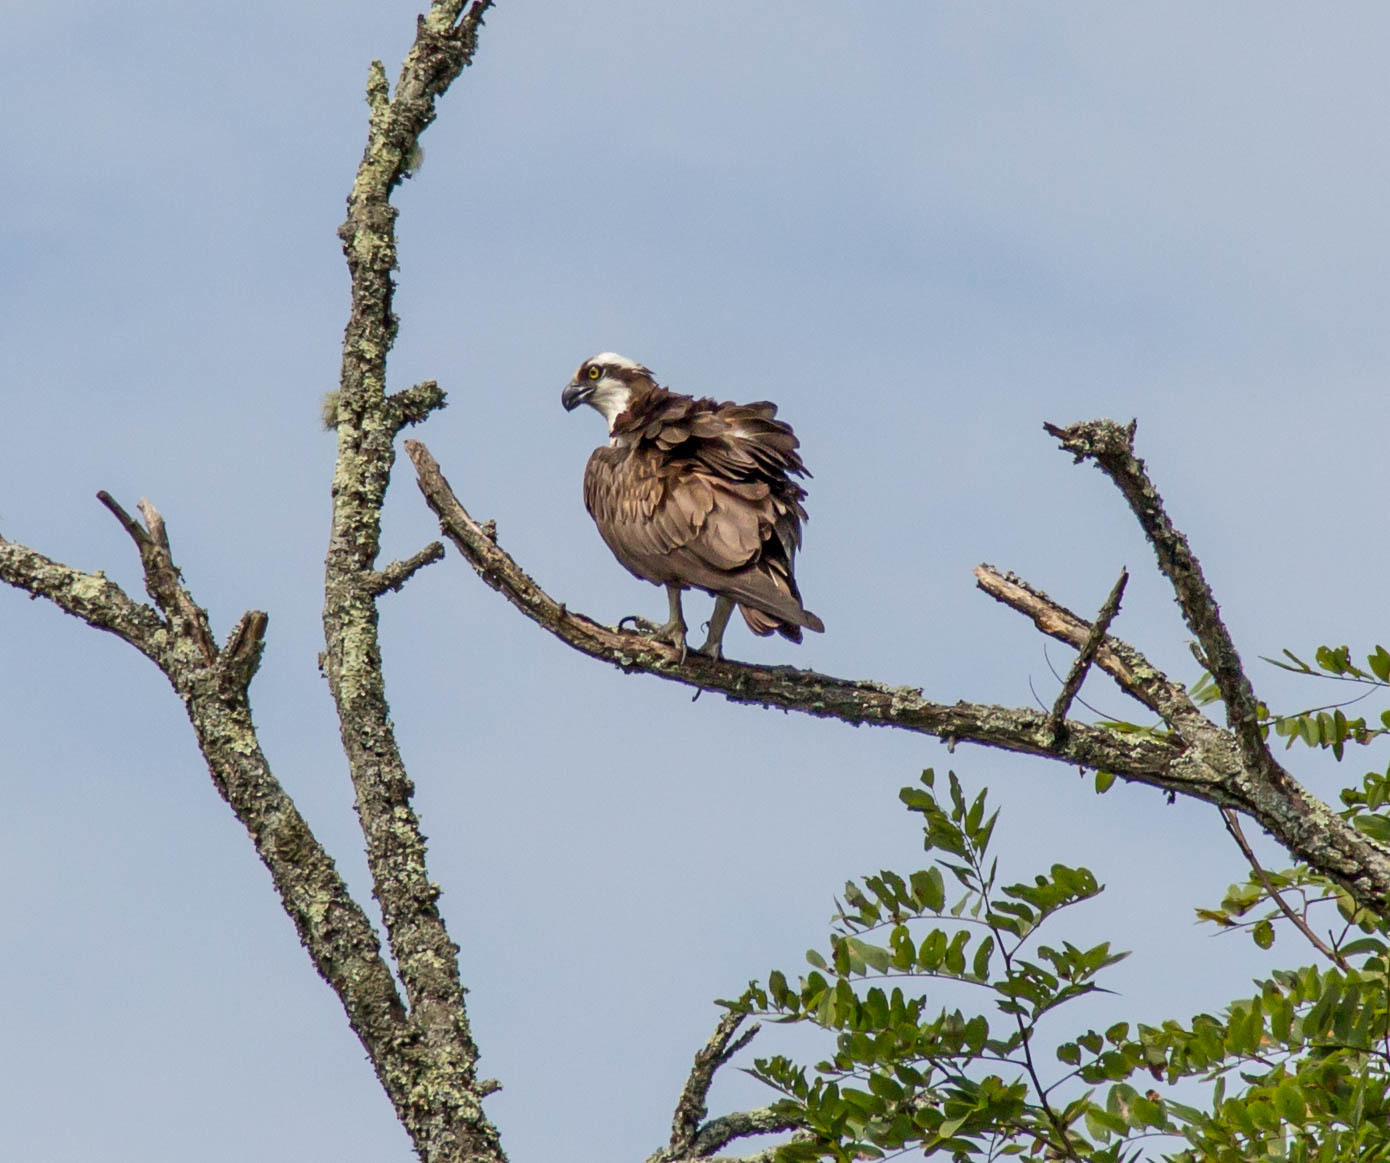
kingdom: Animalia
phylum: Chordata
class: Aves
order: Accipitriformes
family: Pandionidae
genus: Pandion
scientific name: Pandion haliaetus
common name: Osprey
